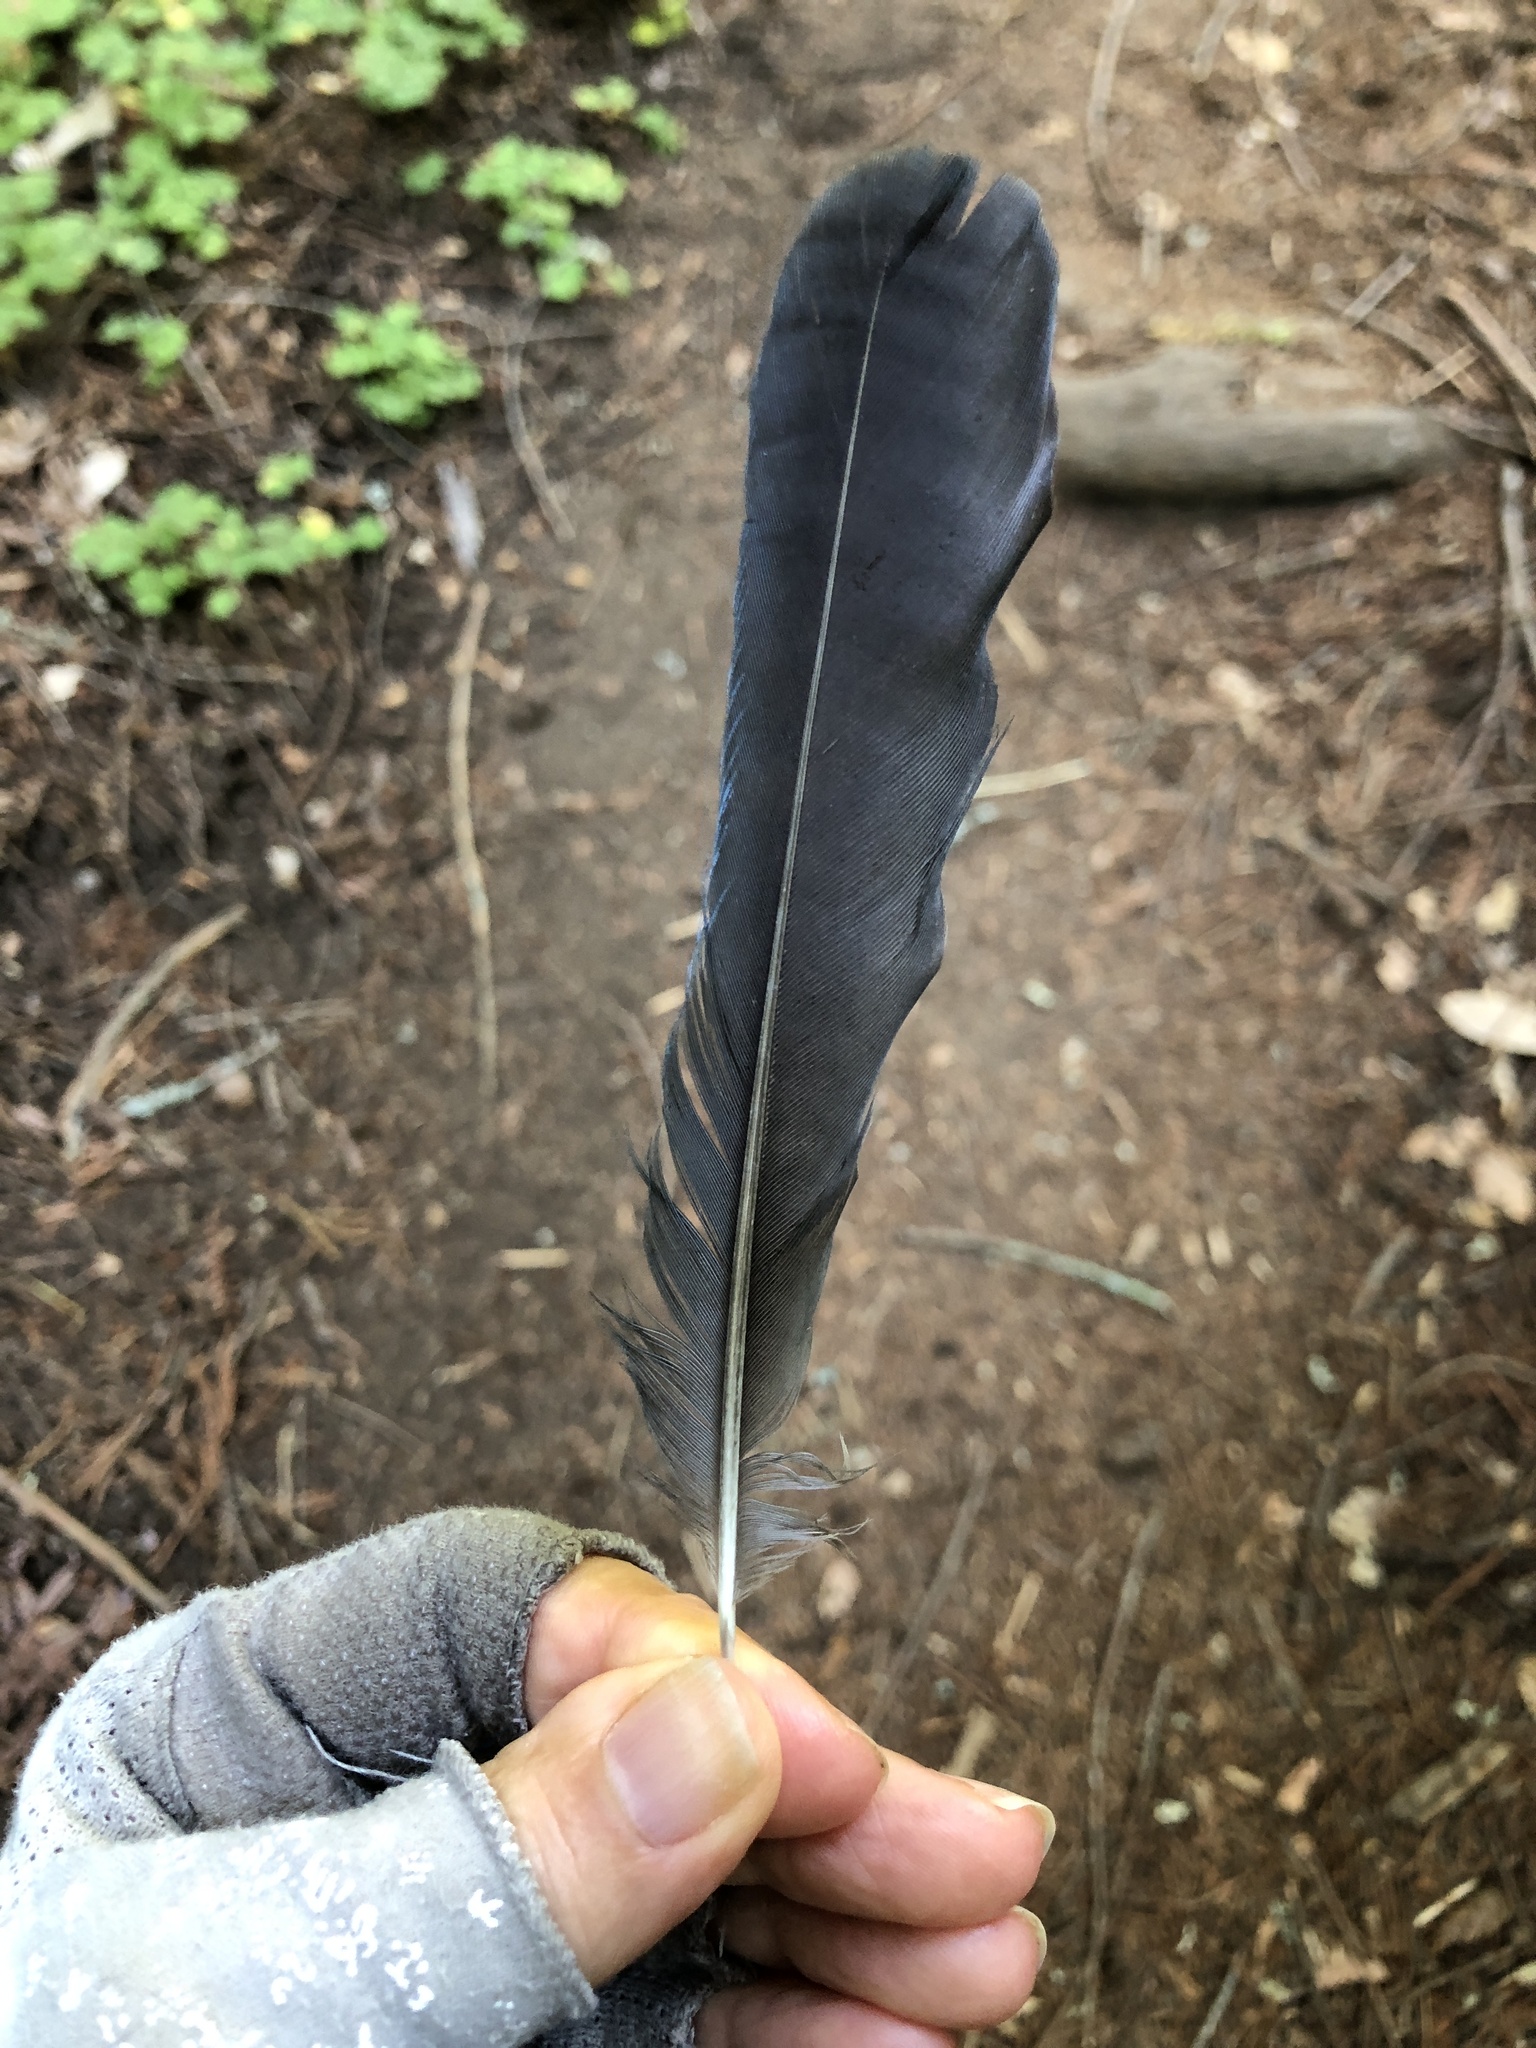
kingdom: Animalia
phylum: Chordata
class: Aves
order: Passeriformes
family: Corvidae
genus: Cyanocitta
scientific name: Cyanocitta stelleri
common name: Steller's jay
